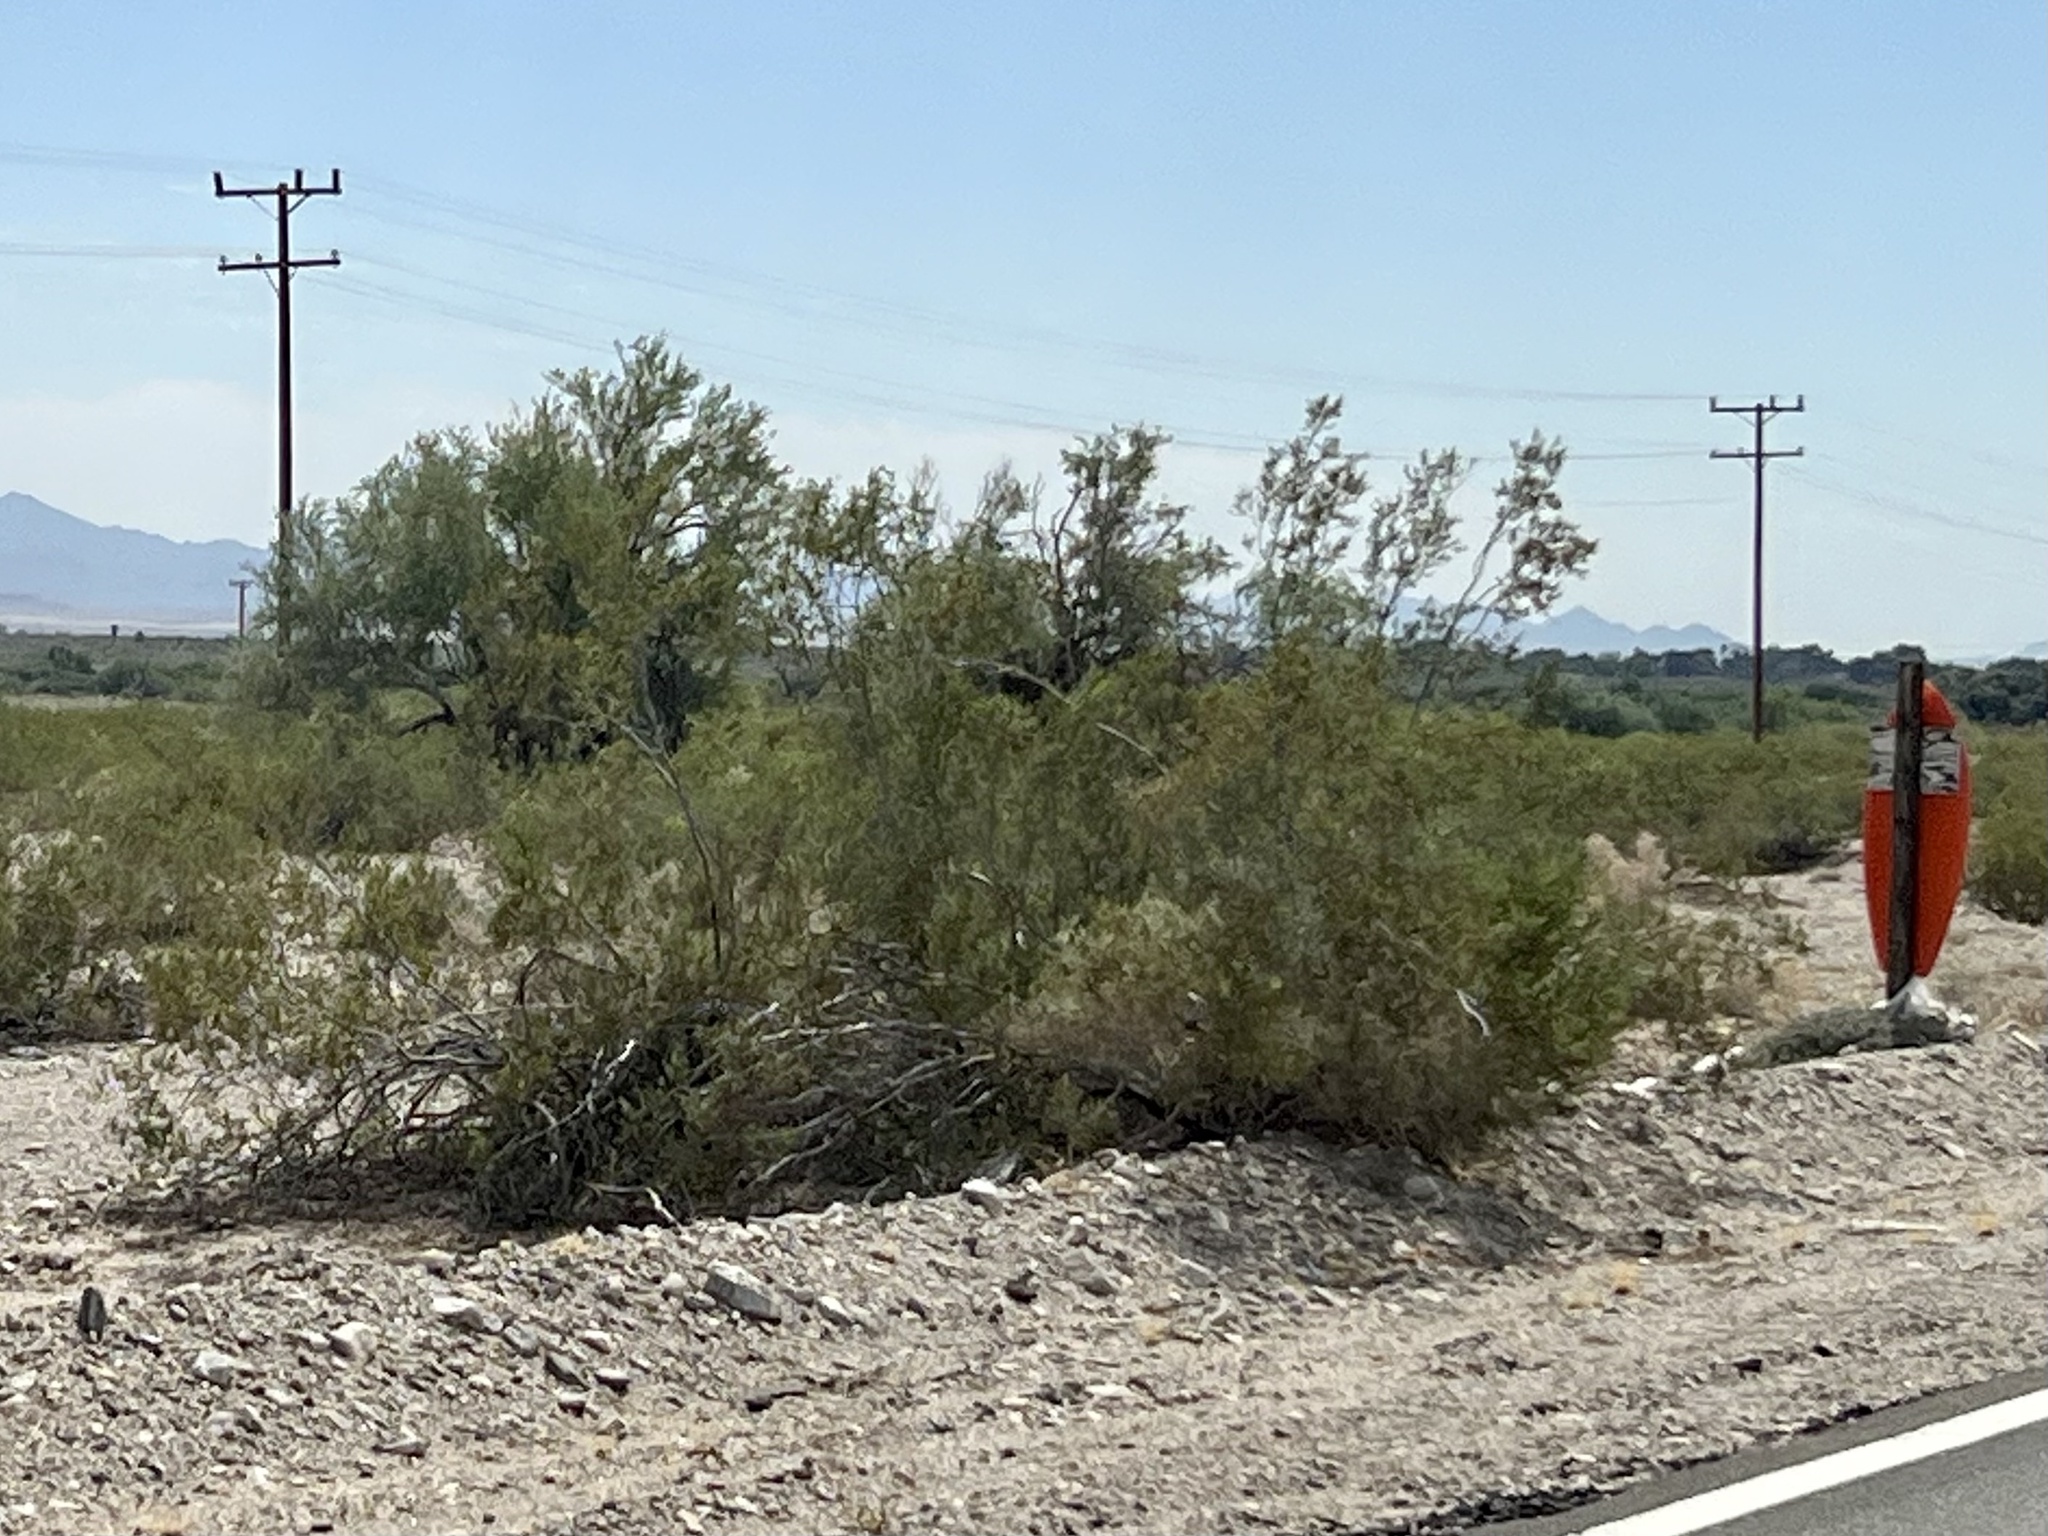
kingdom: Plantae
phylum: Tracheophyta
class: Magnoliopsida
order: Zygophyllales
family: Zygophyllaceae
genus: Larrea
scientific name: Larrea tridentata
